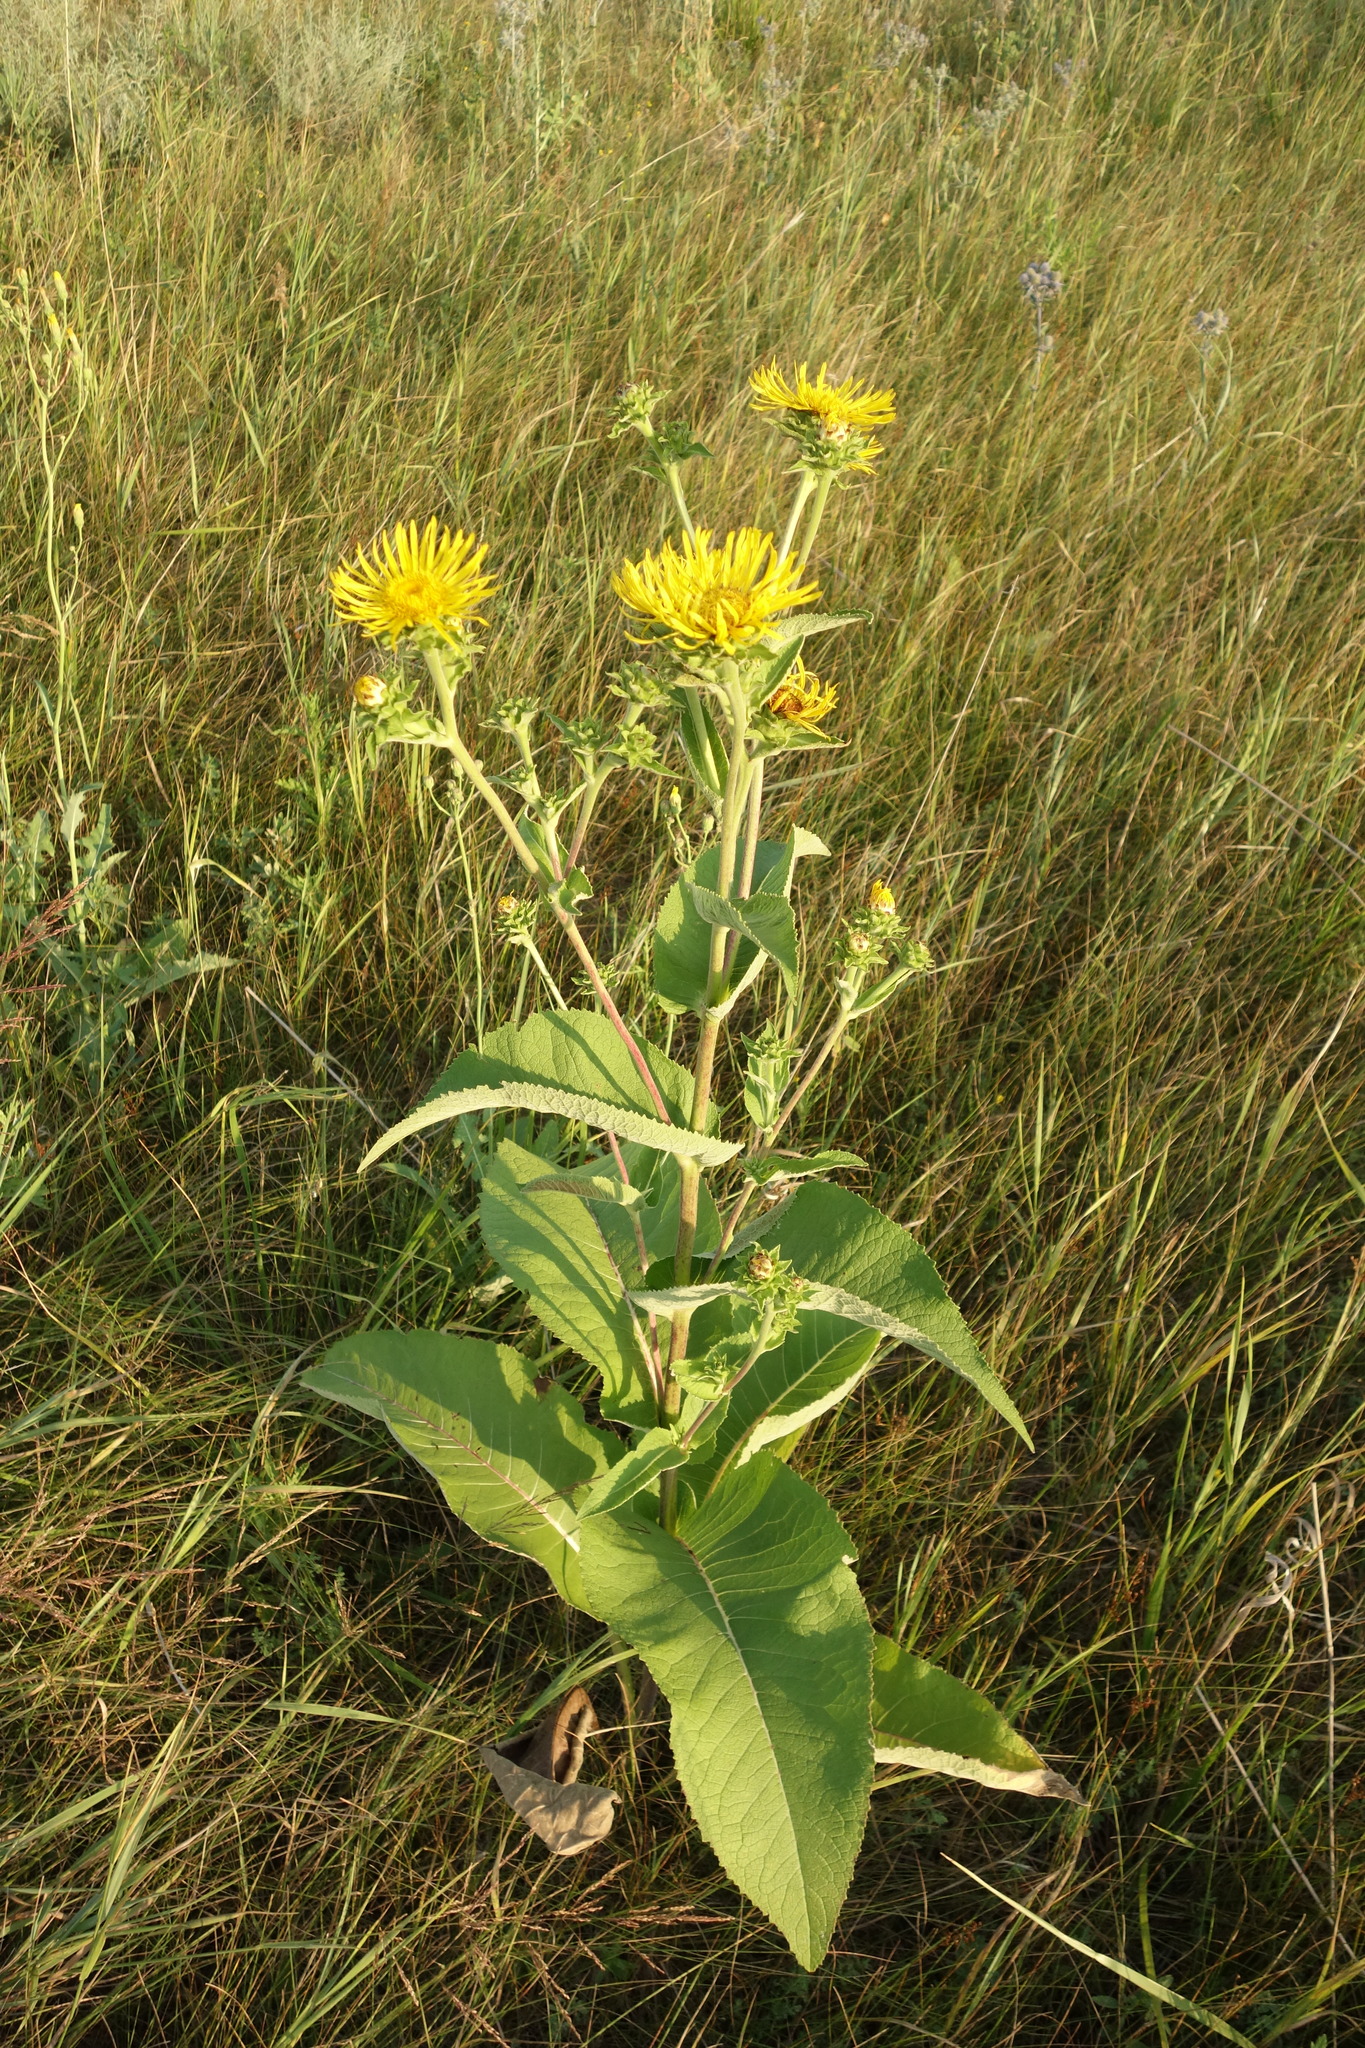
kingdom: Plantae
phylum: Tracheophyta
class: Magnoliopsida
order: Asterales
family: Asteraceae
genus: Inula
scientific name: Inula helenium
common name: Elecampane
